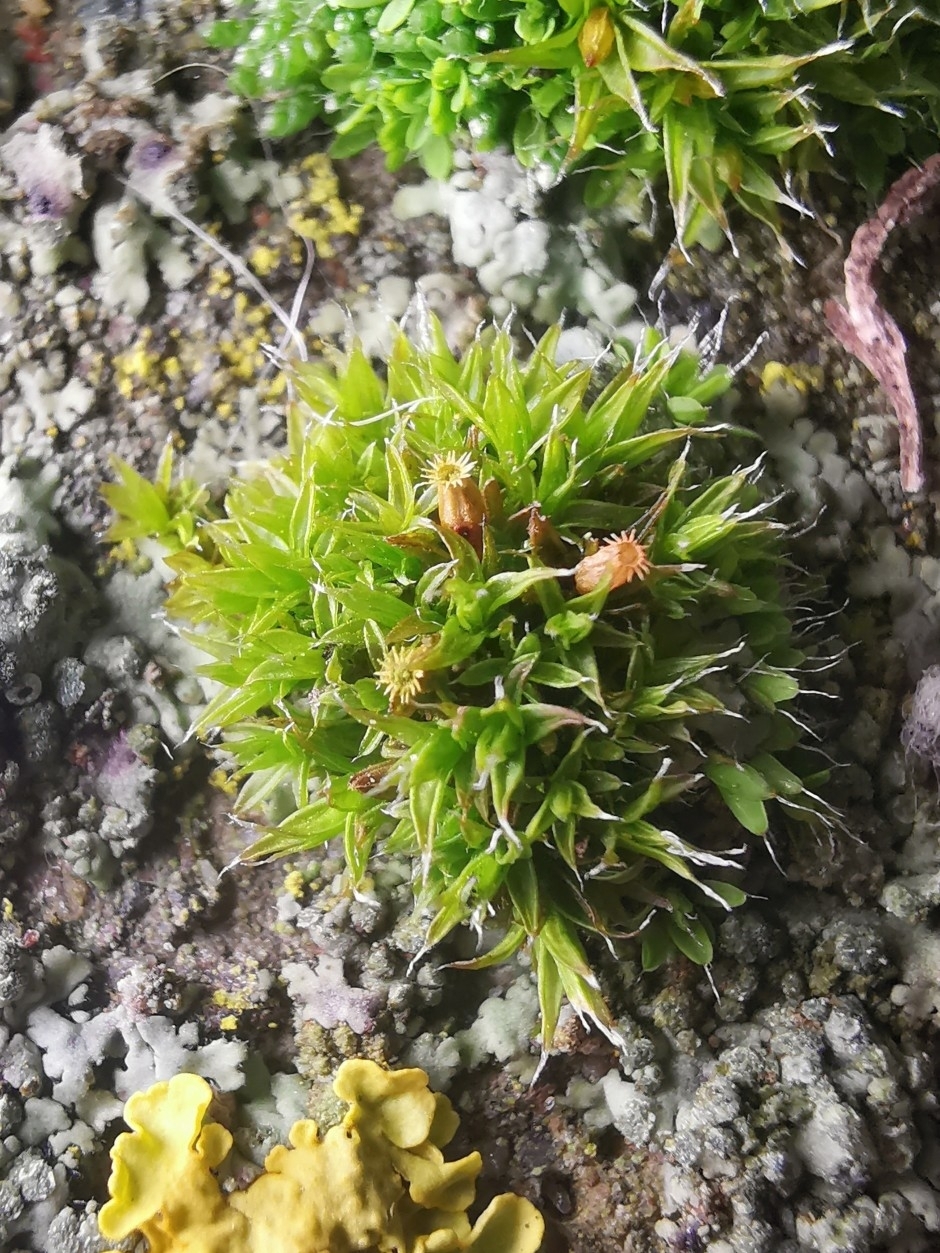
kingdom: Plantae
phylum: Bryophyta
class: Bryopsida
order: Orthotrichales
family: Orthotrichaceae
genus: Orthotrichum
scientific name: Orthotrichum diaphanum
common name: White-tipped bristle-moss
